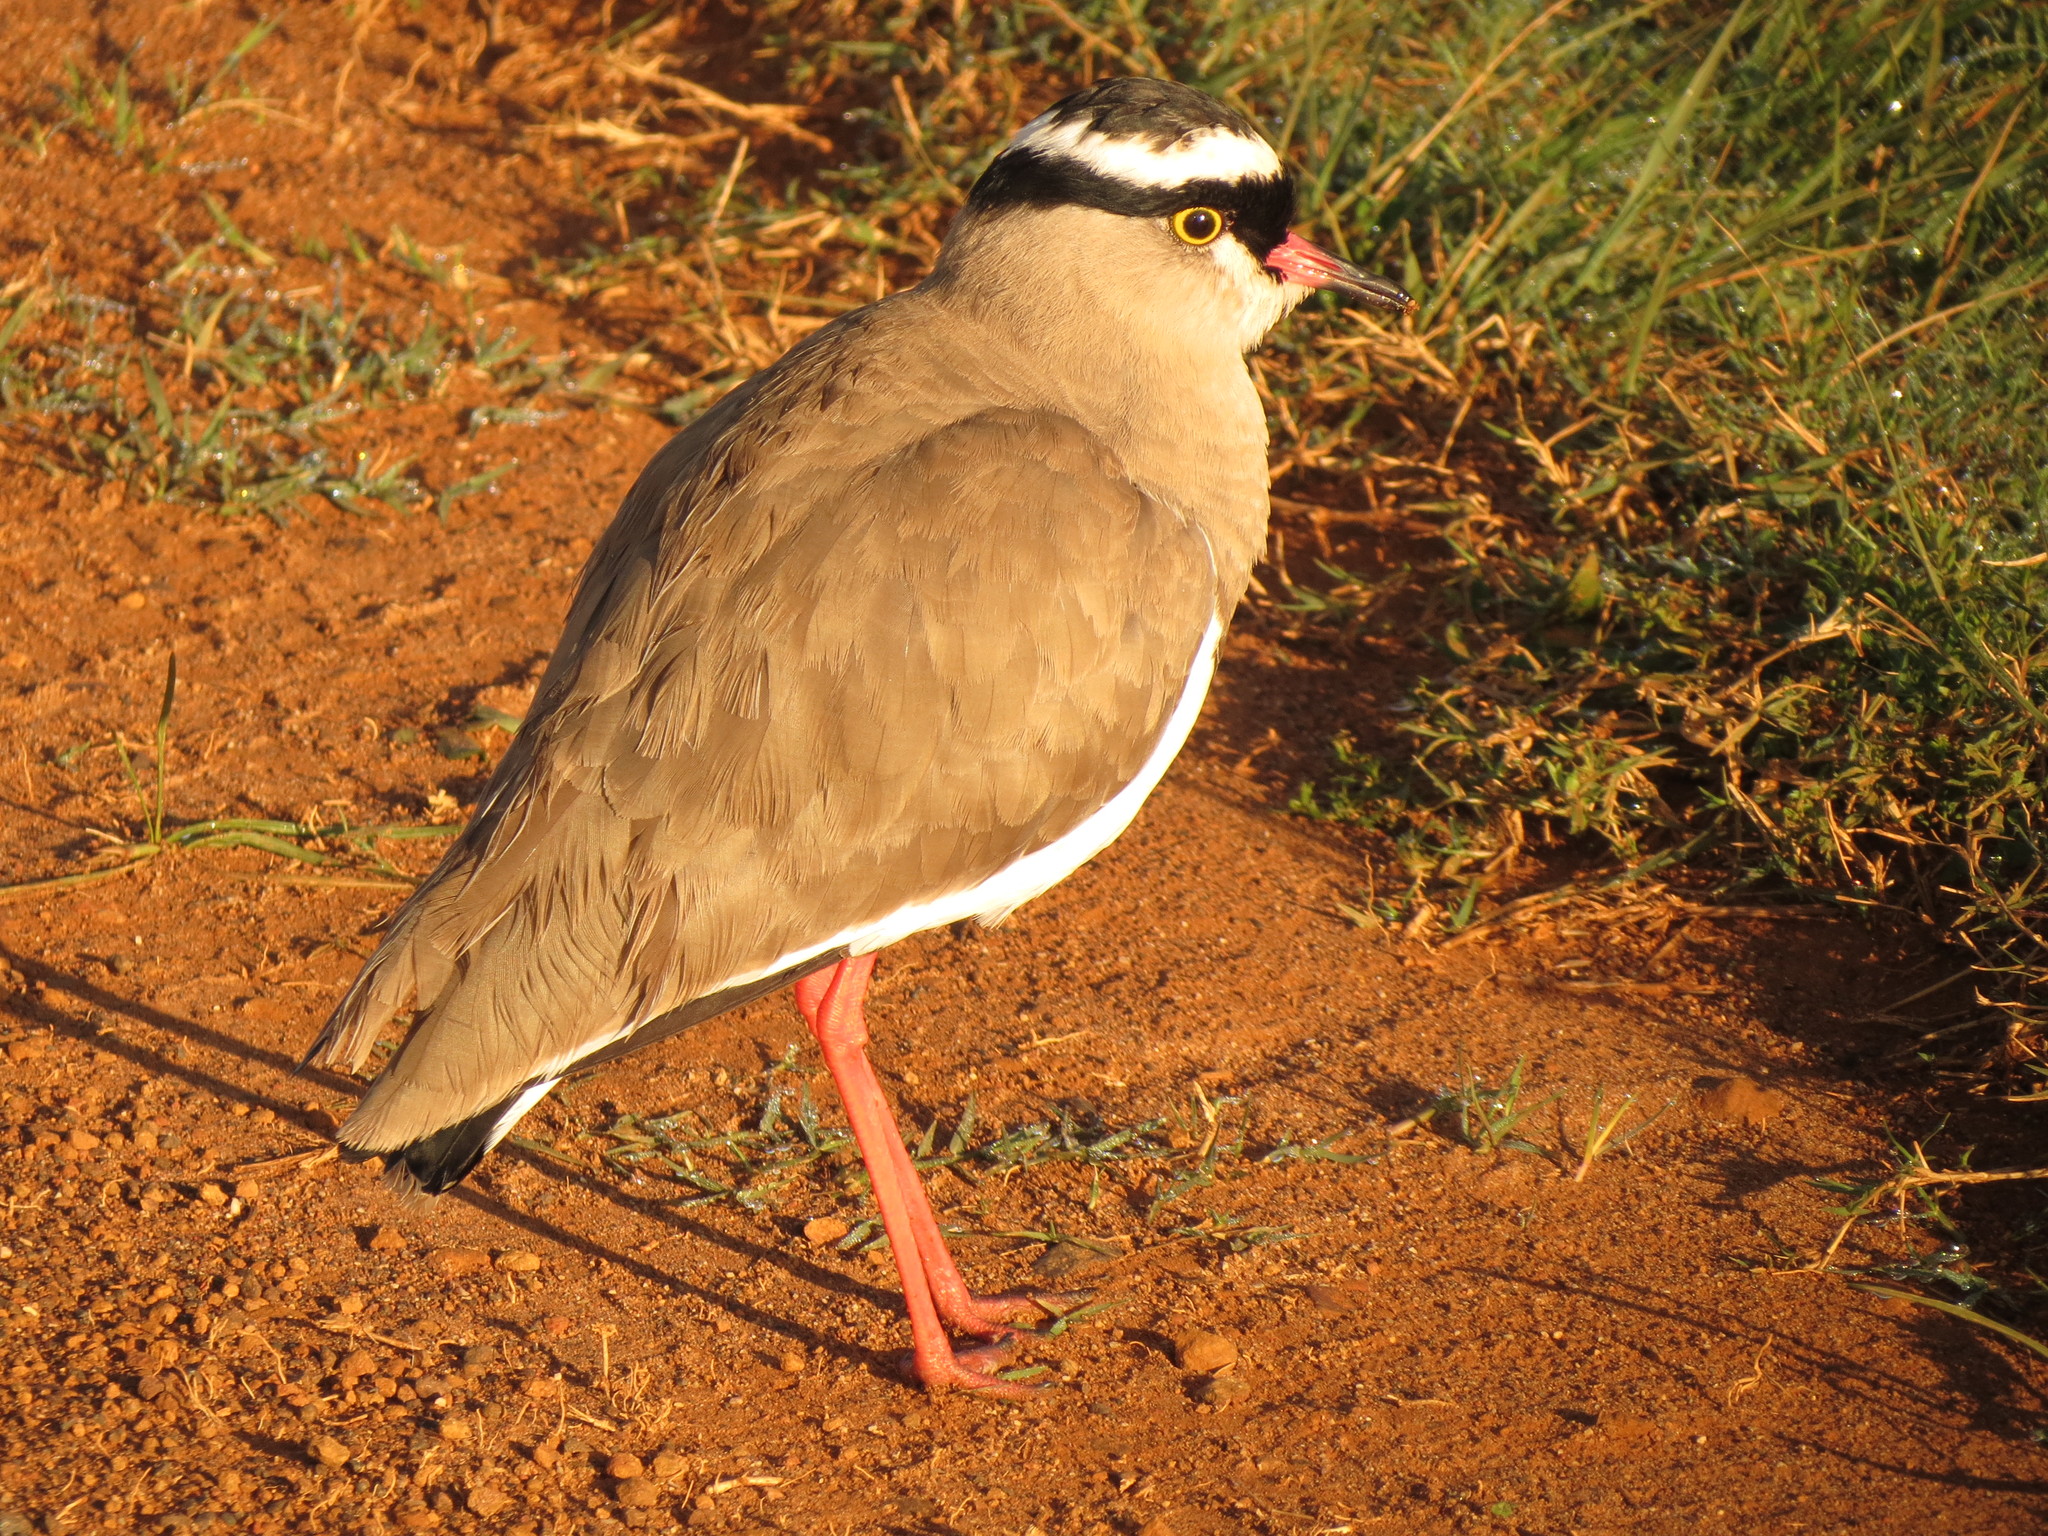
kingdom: Animalia
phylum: Chordata
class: Aves
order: Charadriiformes
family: Charadriidae
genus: Vanellus
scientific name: Vanellus coronatus
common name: Crowned lapwing
